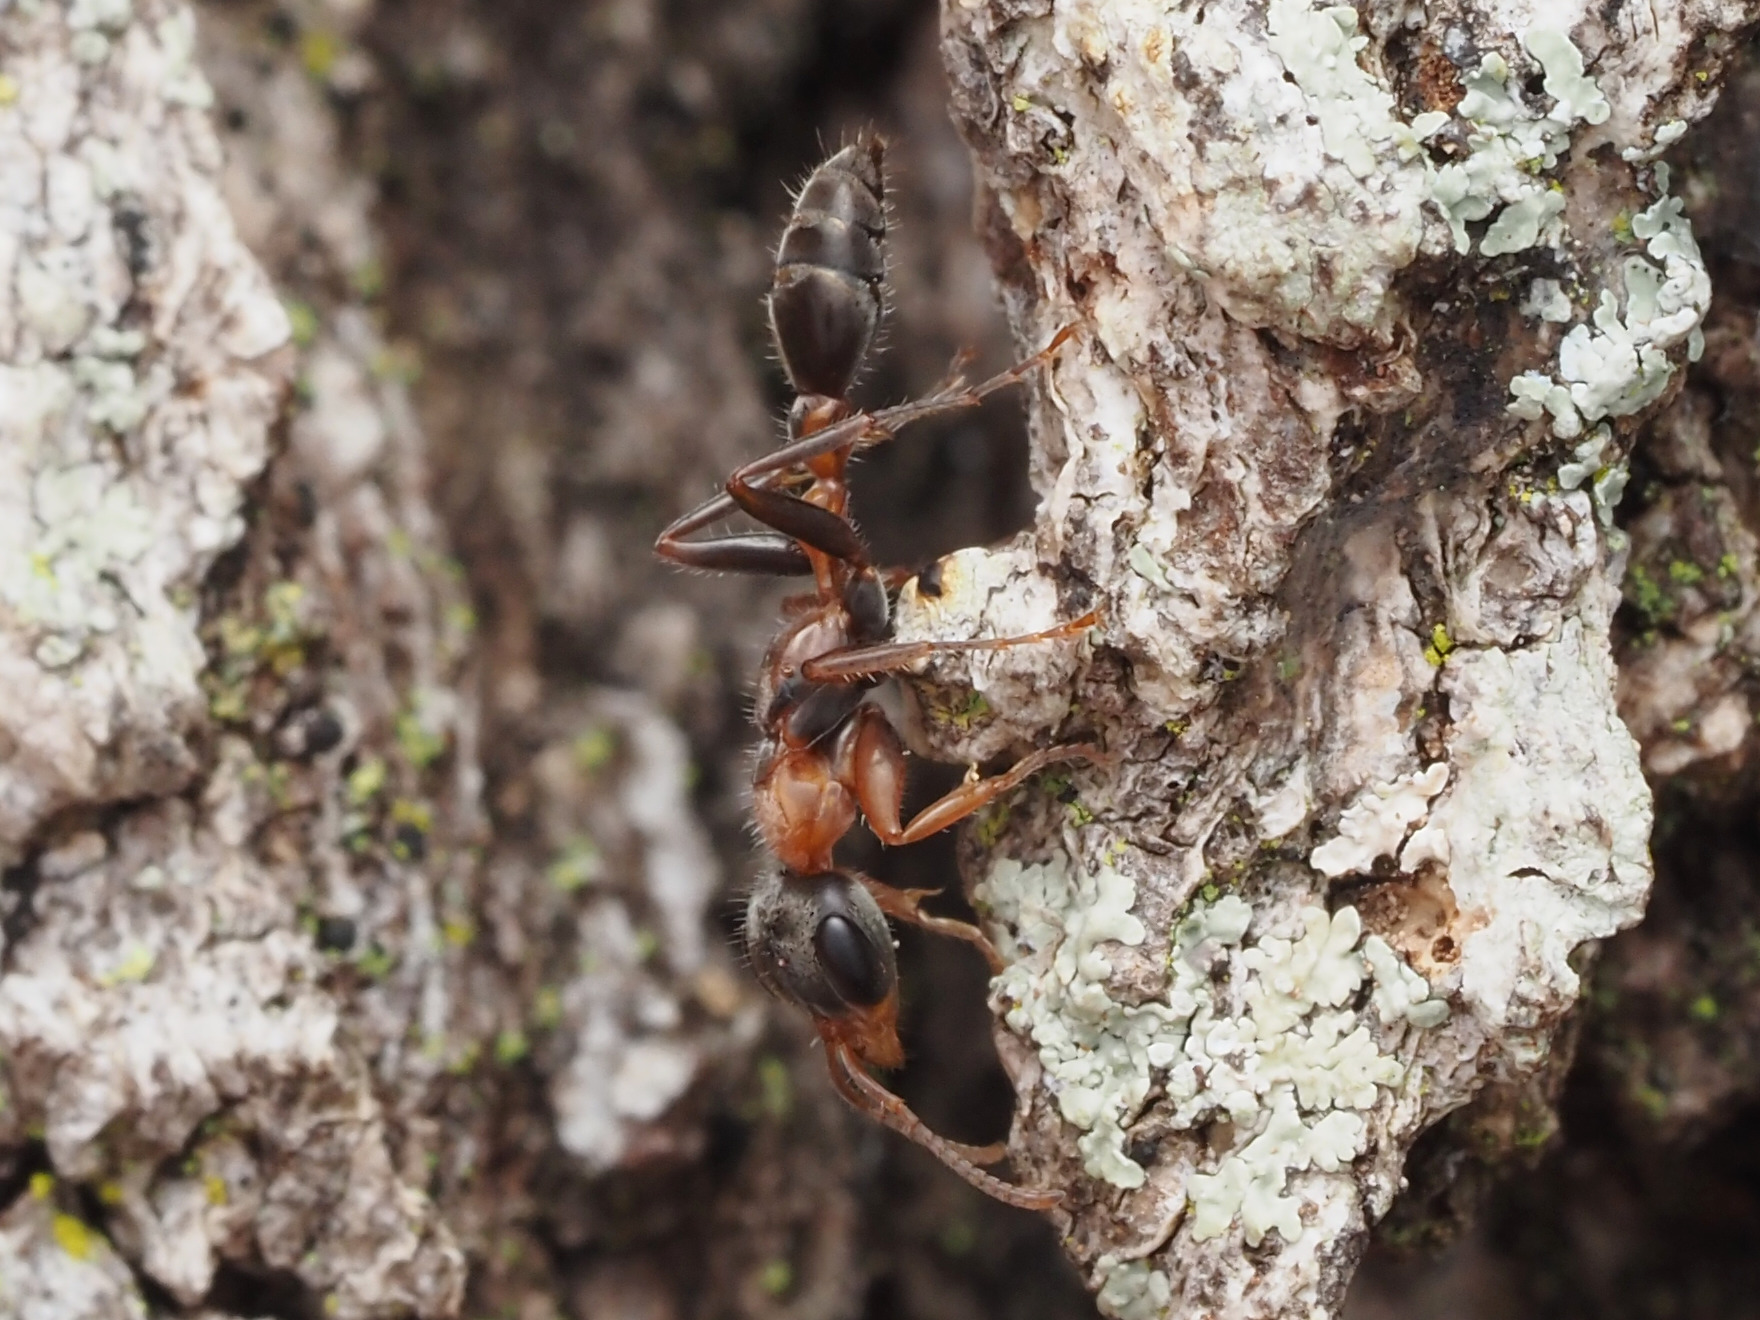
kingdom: Animalia
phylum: Arthropoda
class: Insecta
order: Hymenoptera
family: Formicidae
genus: Pseudomyrmex
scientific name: Pseudomyrmex gracilis
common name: Graceful twig ant
